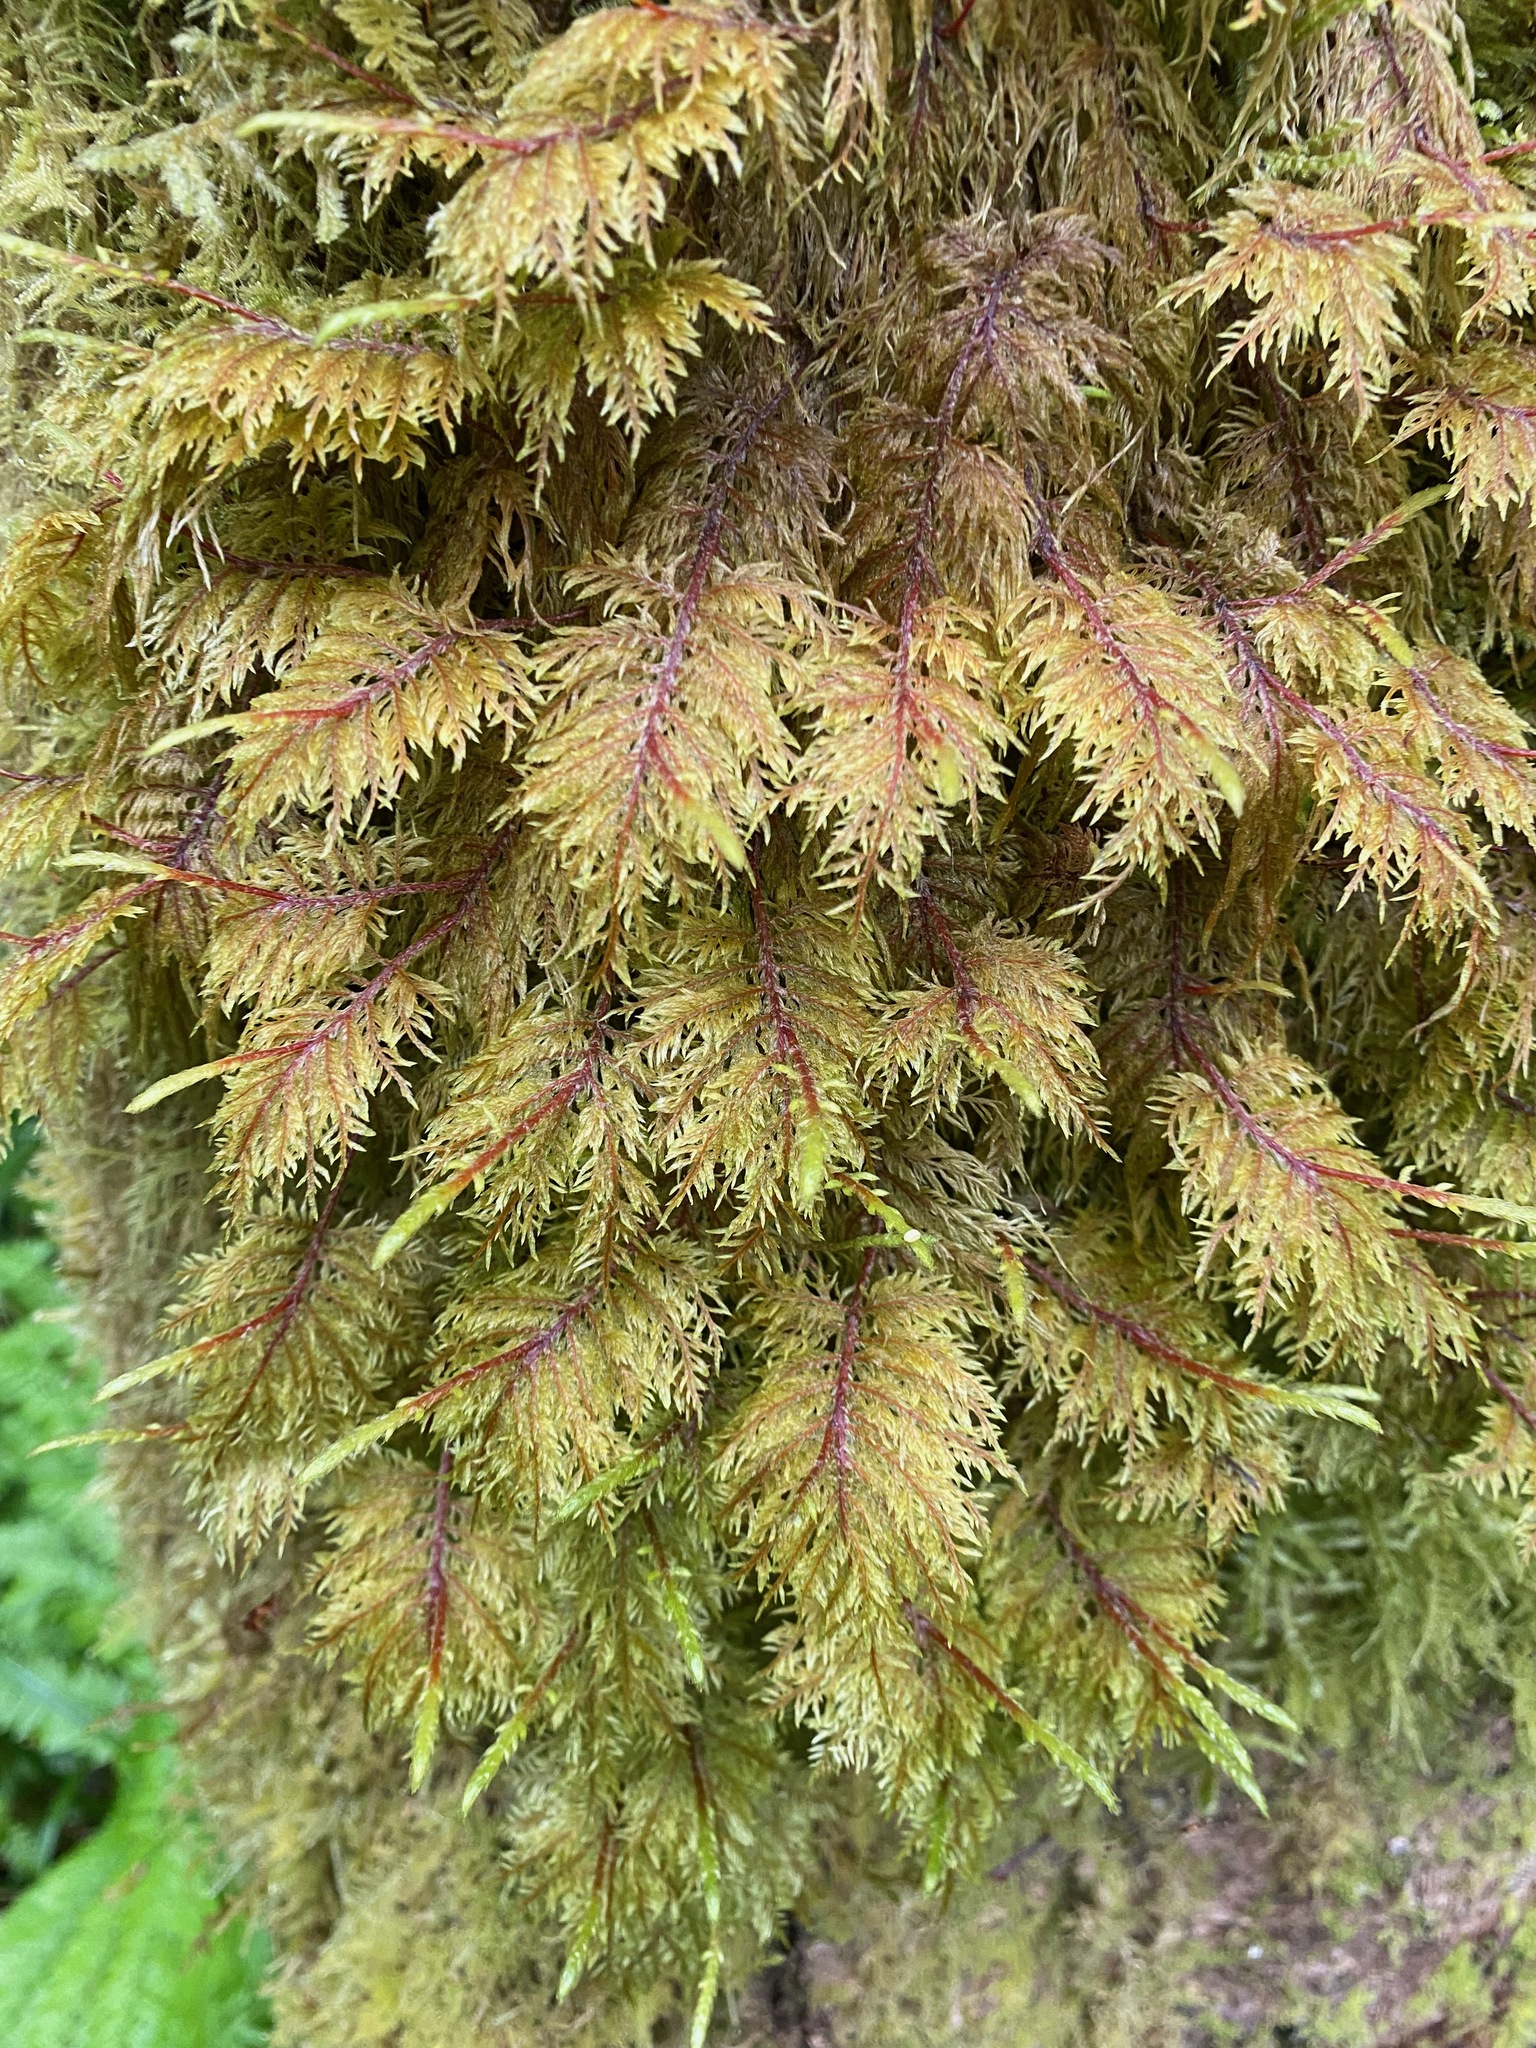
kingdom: Plantae
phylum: Bryophyta
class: Bryopsida
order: Hypnales
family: Hylocomiaceae
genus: Hylocomium
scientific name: Hylocomium splendens
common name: Stairstep moss
